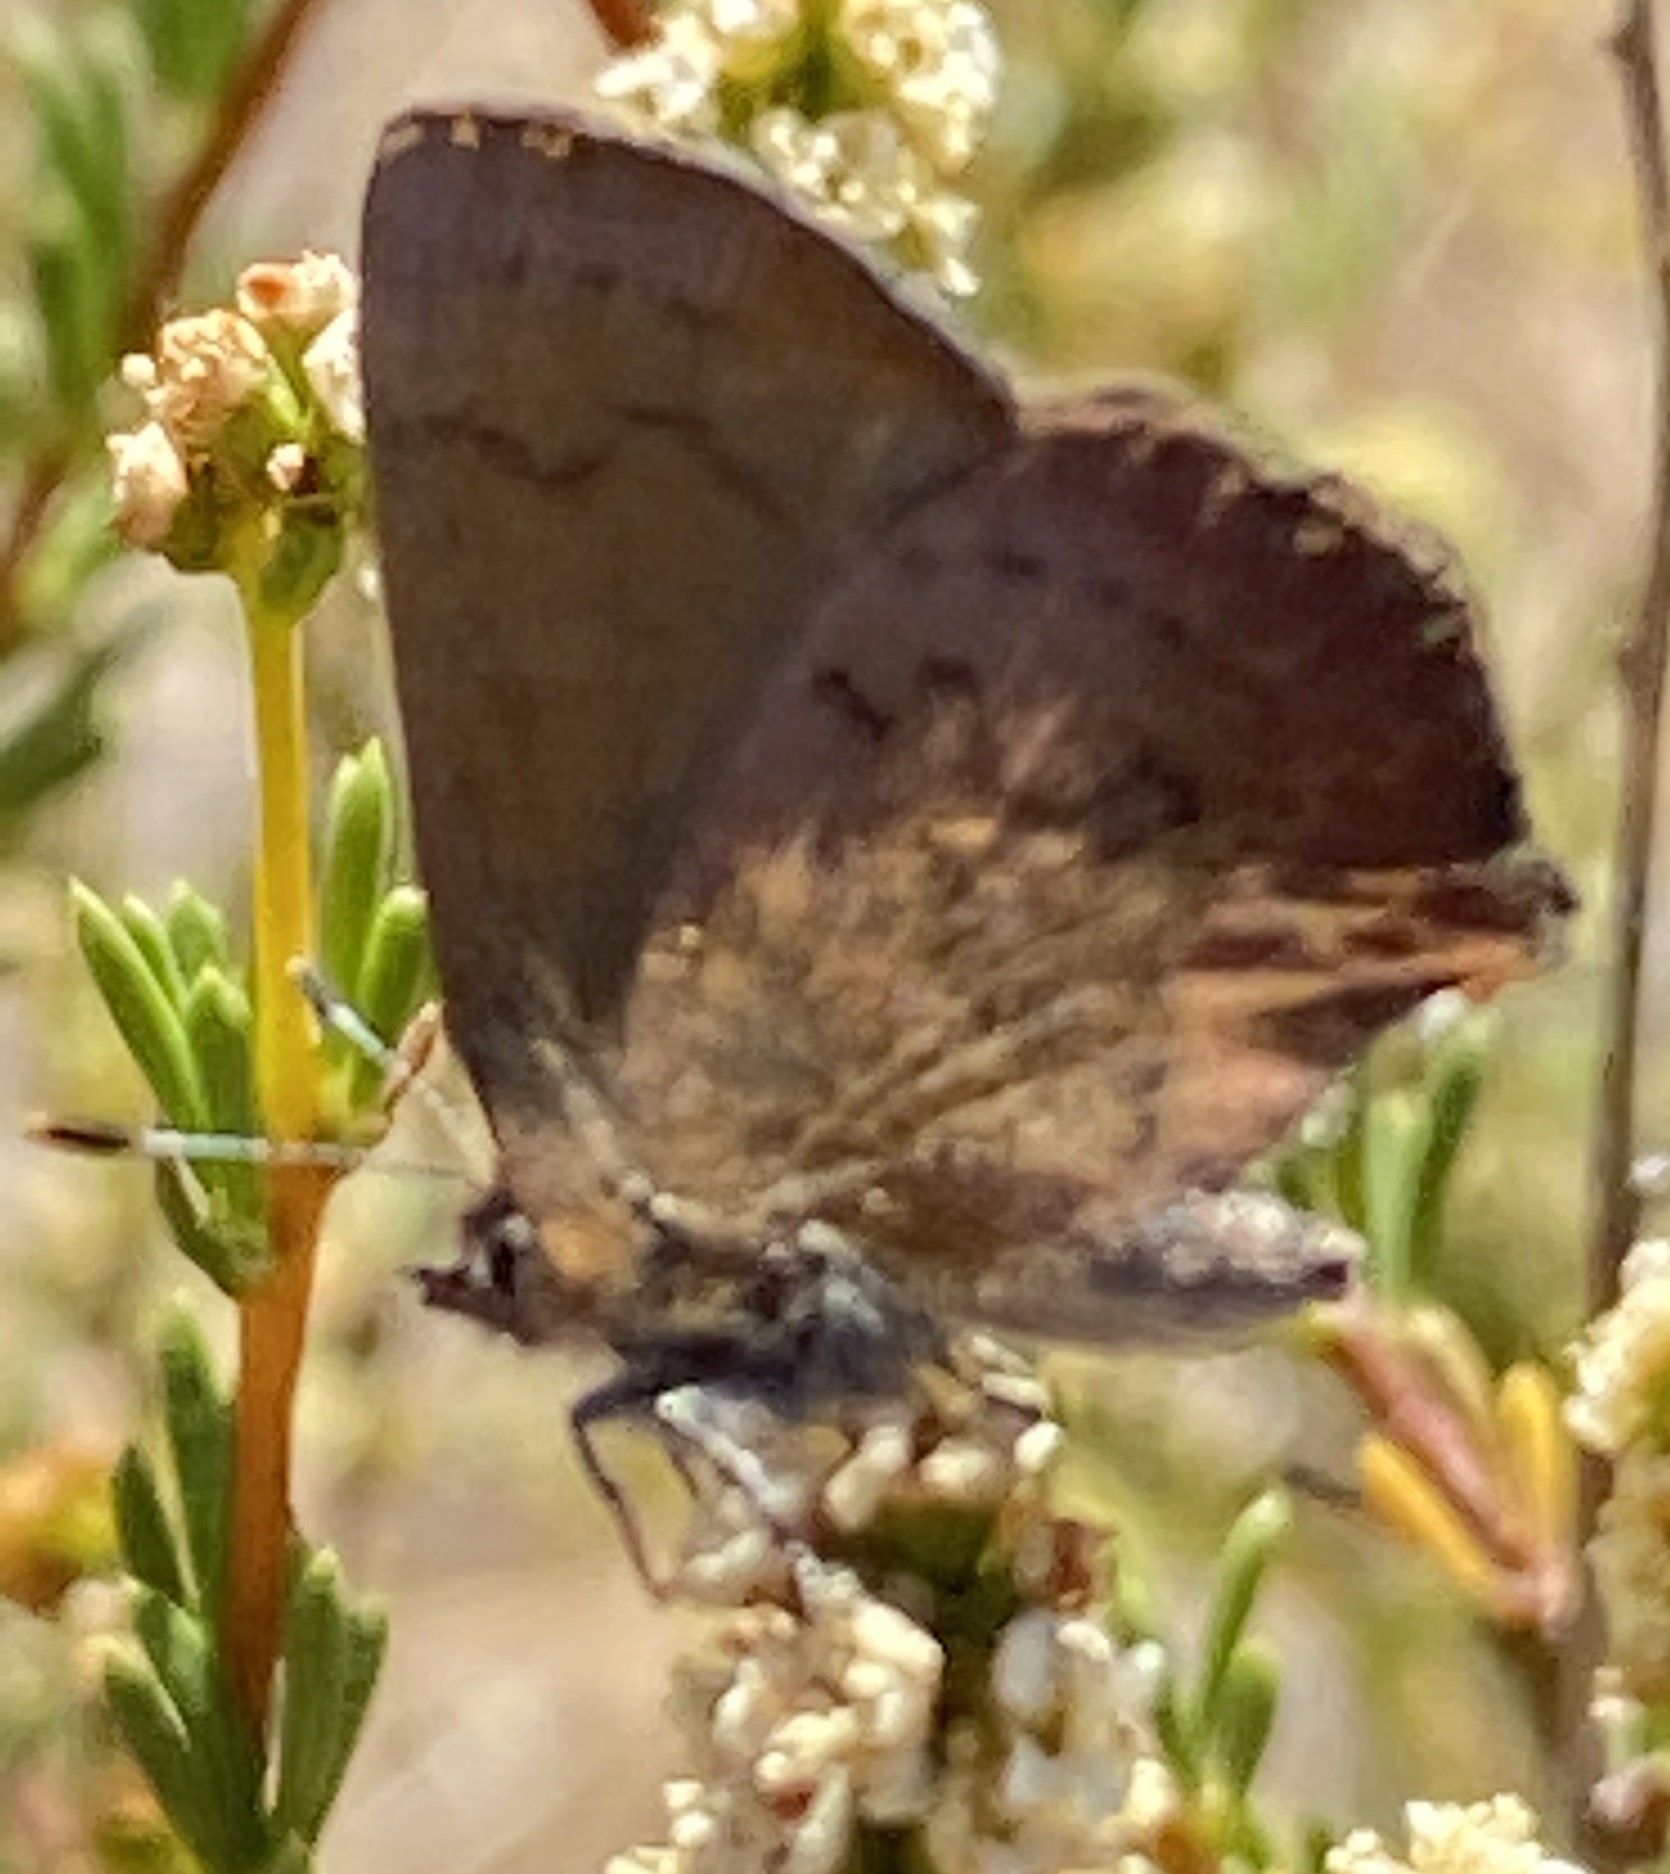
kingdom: Animalia
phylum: Arthropoda
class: Insecta
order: Lepidoptera
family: Lycaenidae
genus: Incisalia
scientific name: Incisalia irioides
